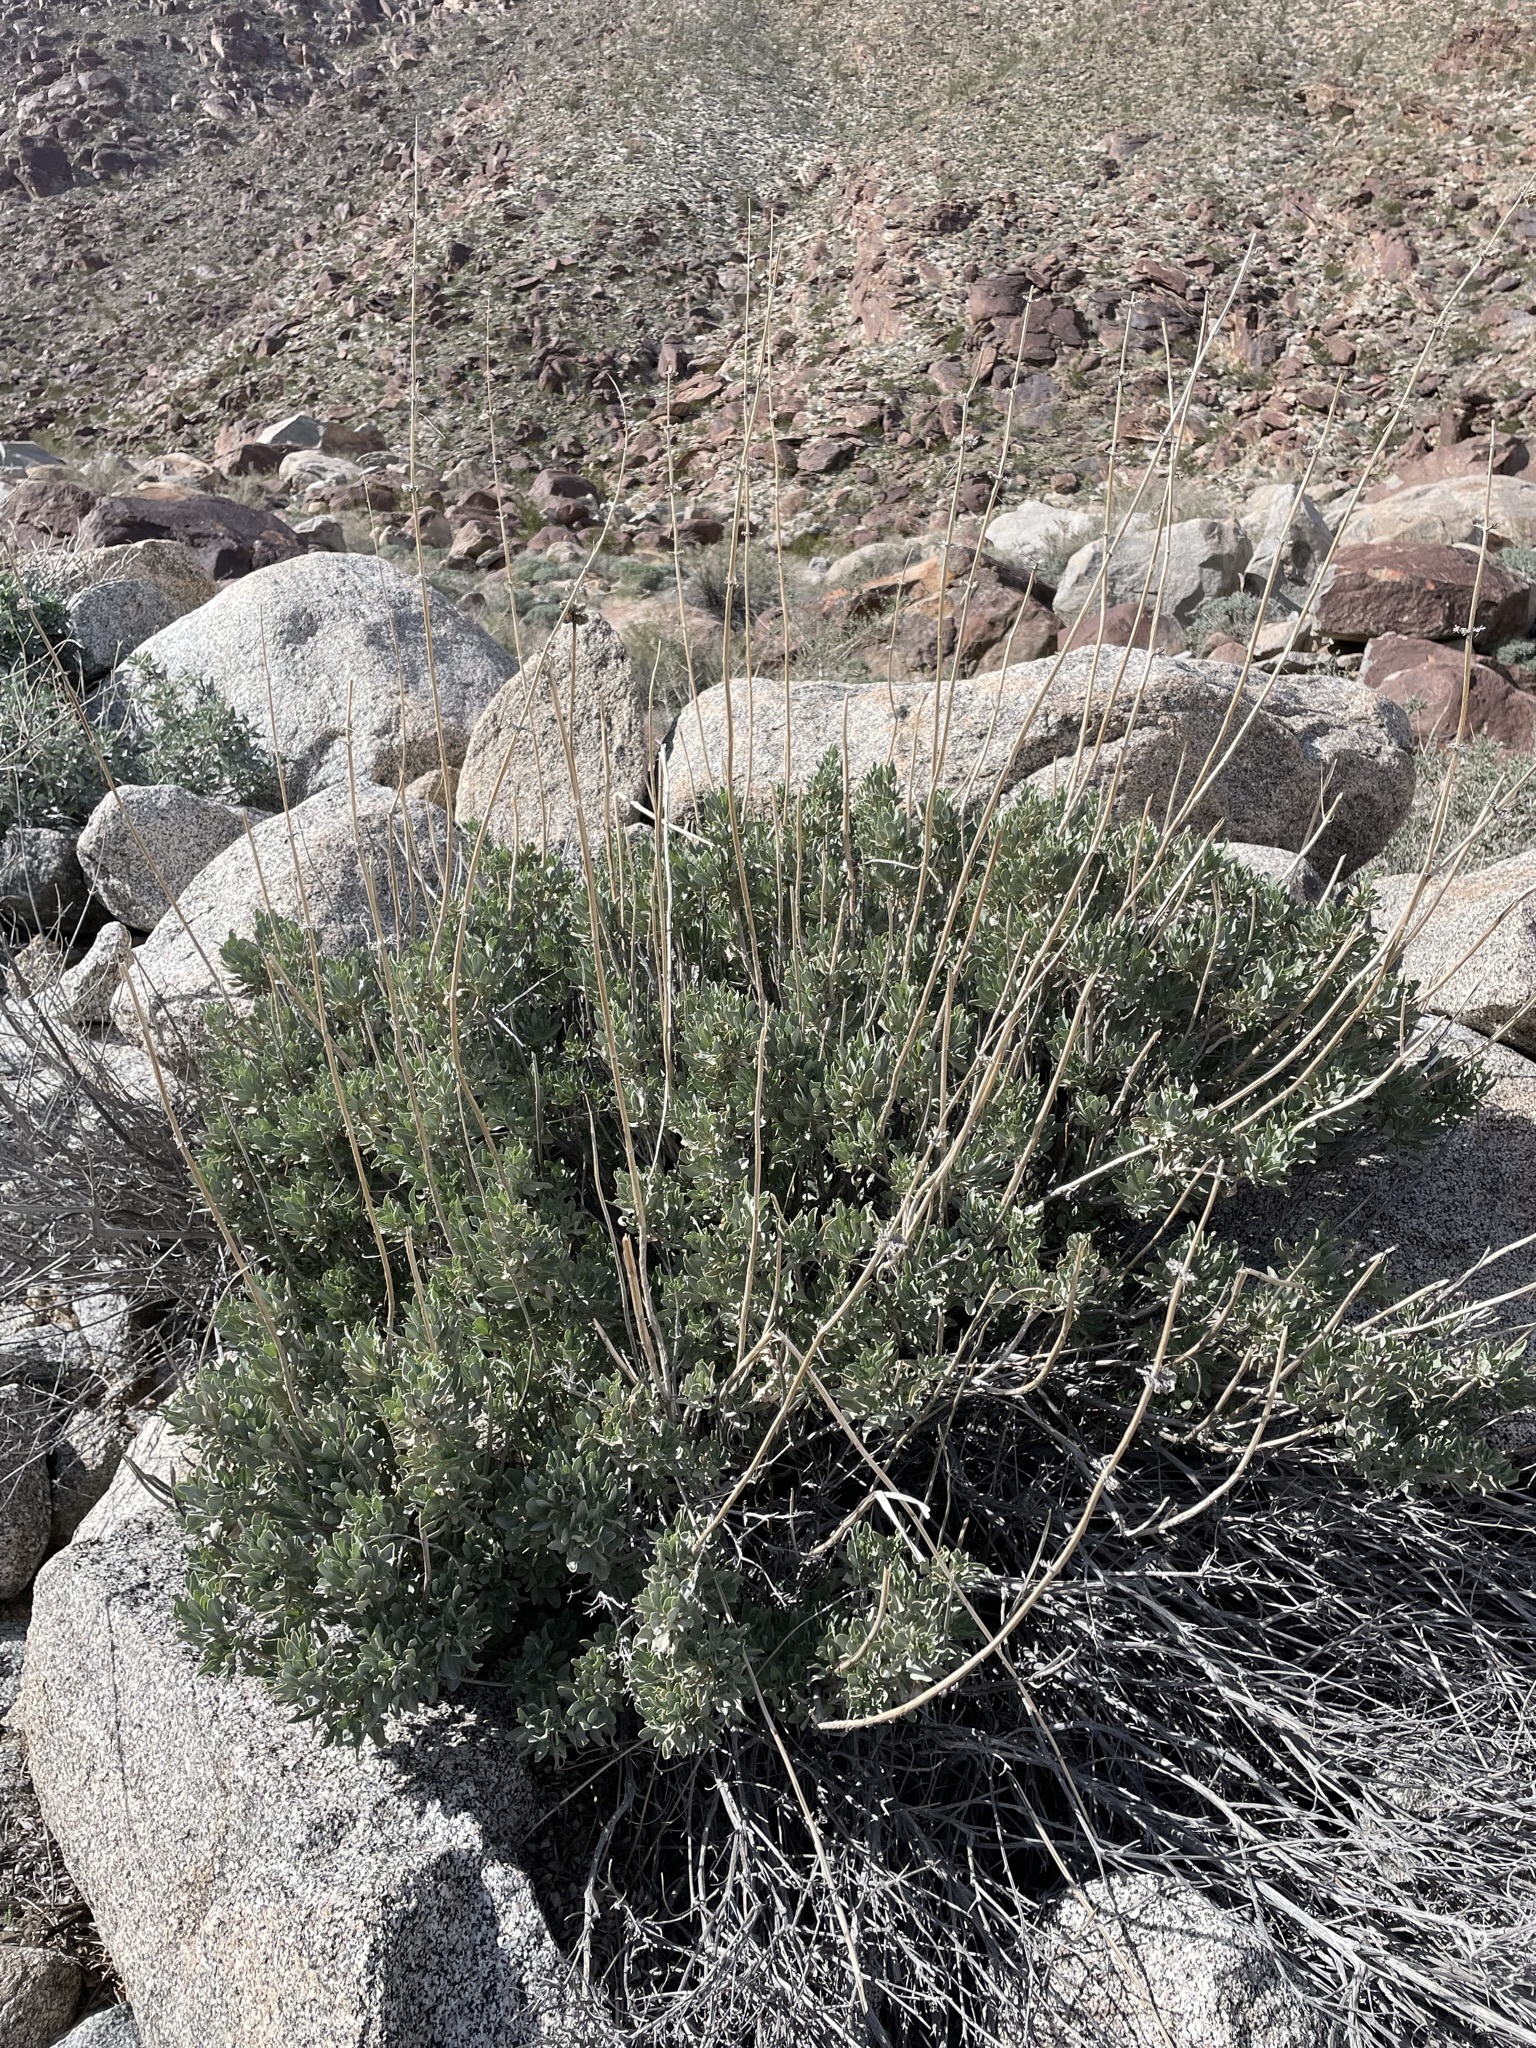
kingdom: Plantae
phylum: Tracheophyta
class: Magnoliopsida
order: Lamiales
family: Lamiaceae
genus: Salvia
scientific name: Salvia vaseyi
